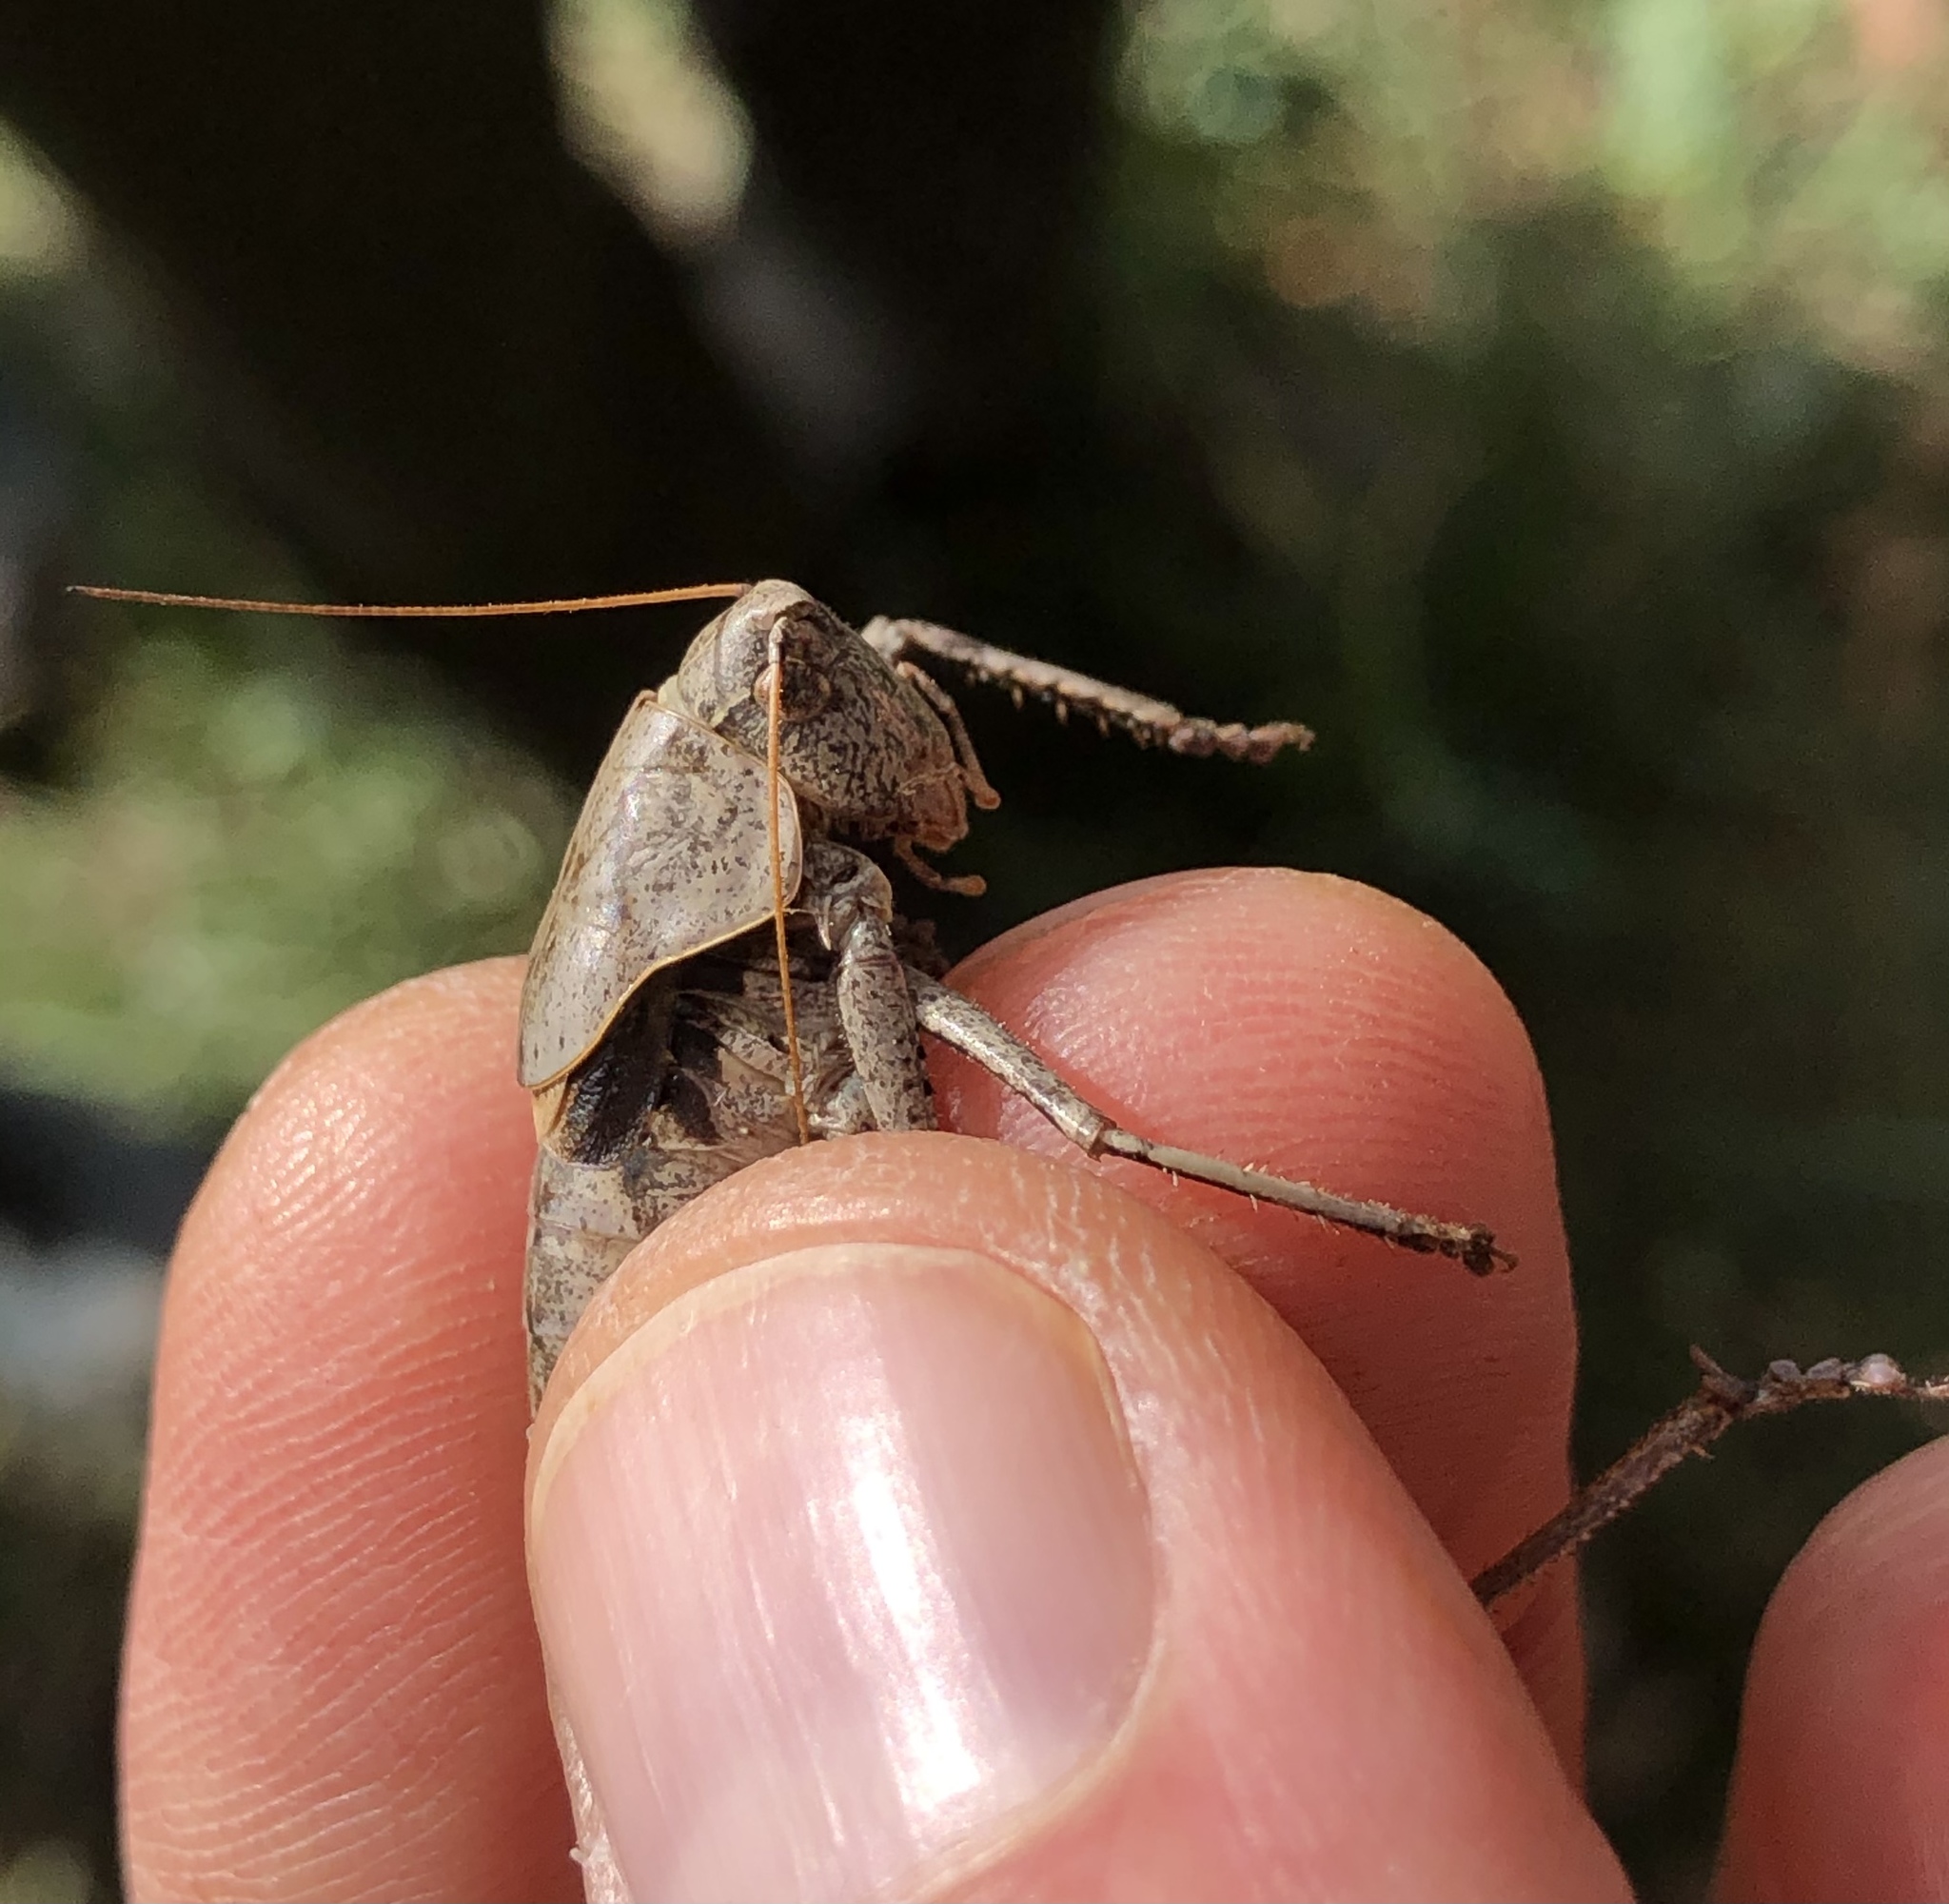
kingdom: Animalia
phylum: Arthropoda
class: Insecta
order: Orthoptera
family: Tettigoniidae
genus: Thyreonotus
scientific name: Thyreonotus corsicus
